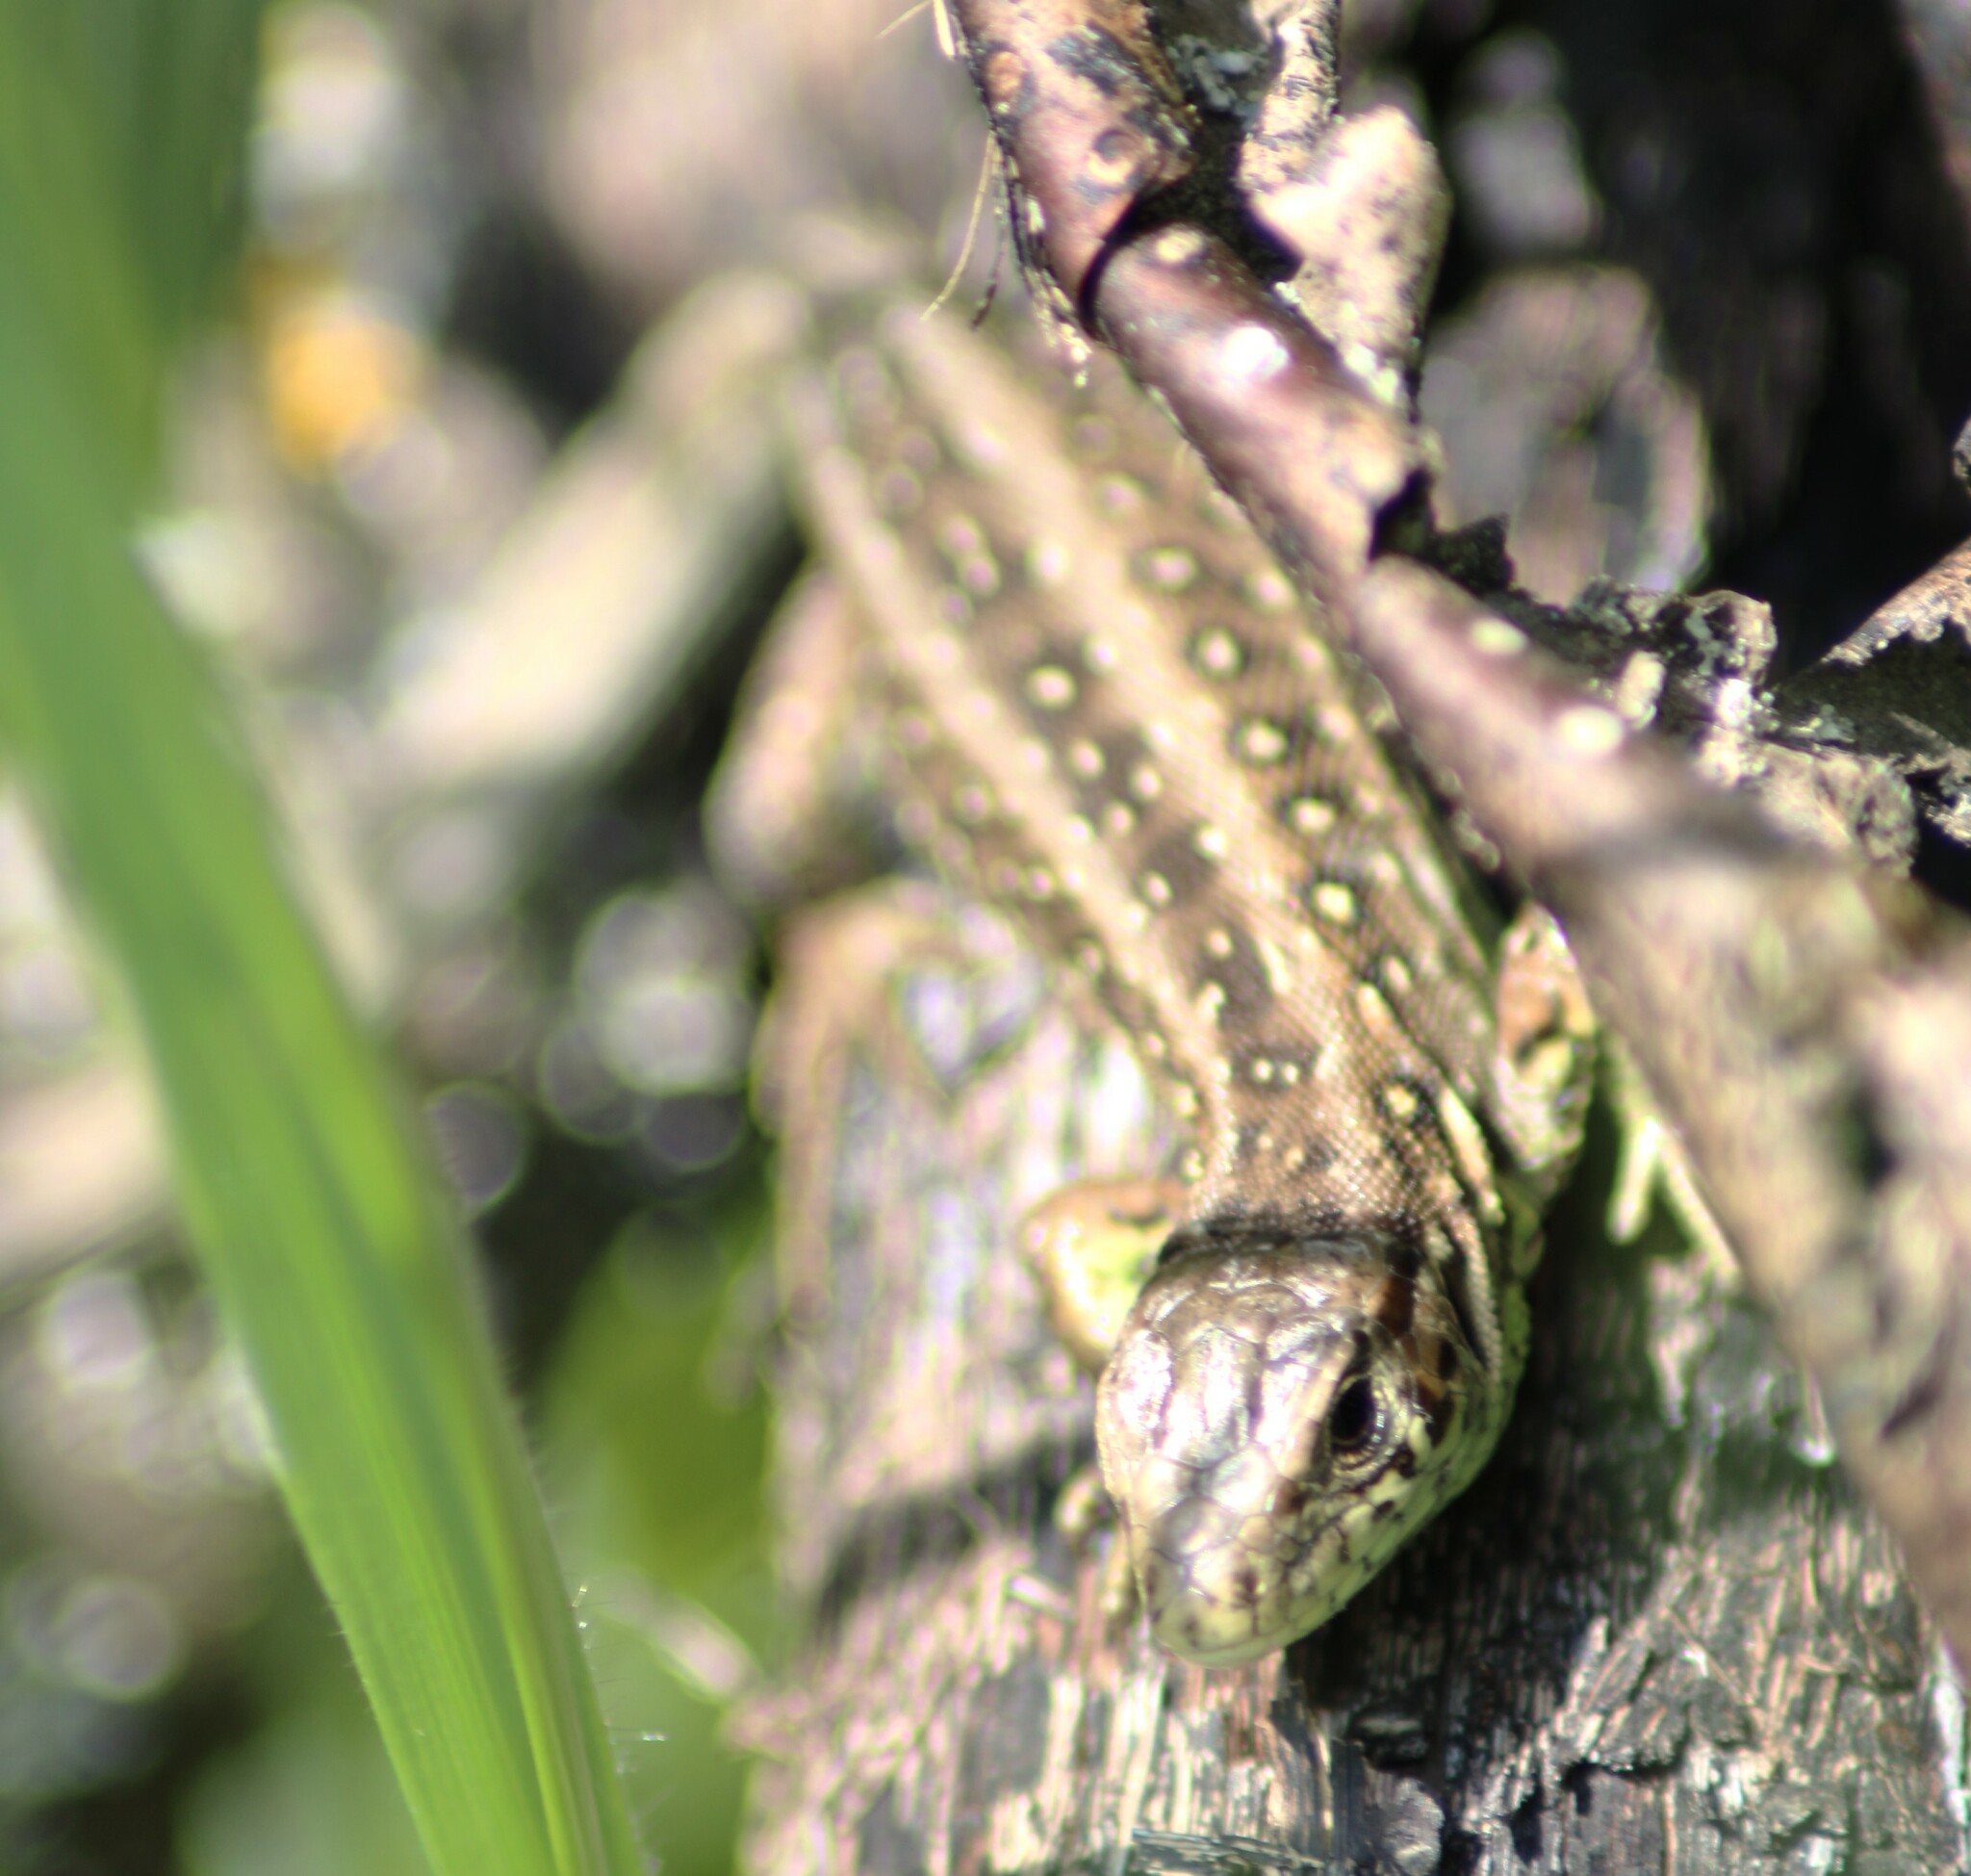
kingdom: Animalia
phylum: Chordata
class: Squamata
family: Lacertidae
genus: Lacerta
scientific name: Lacerta agilis
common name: Sand lizard
